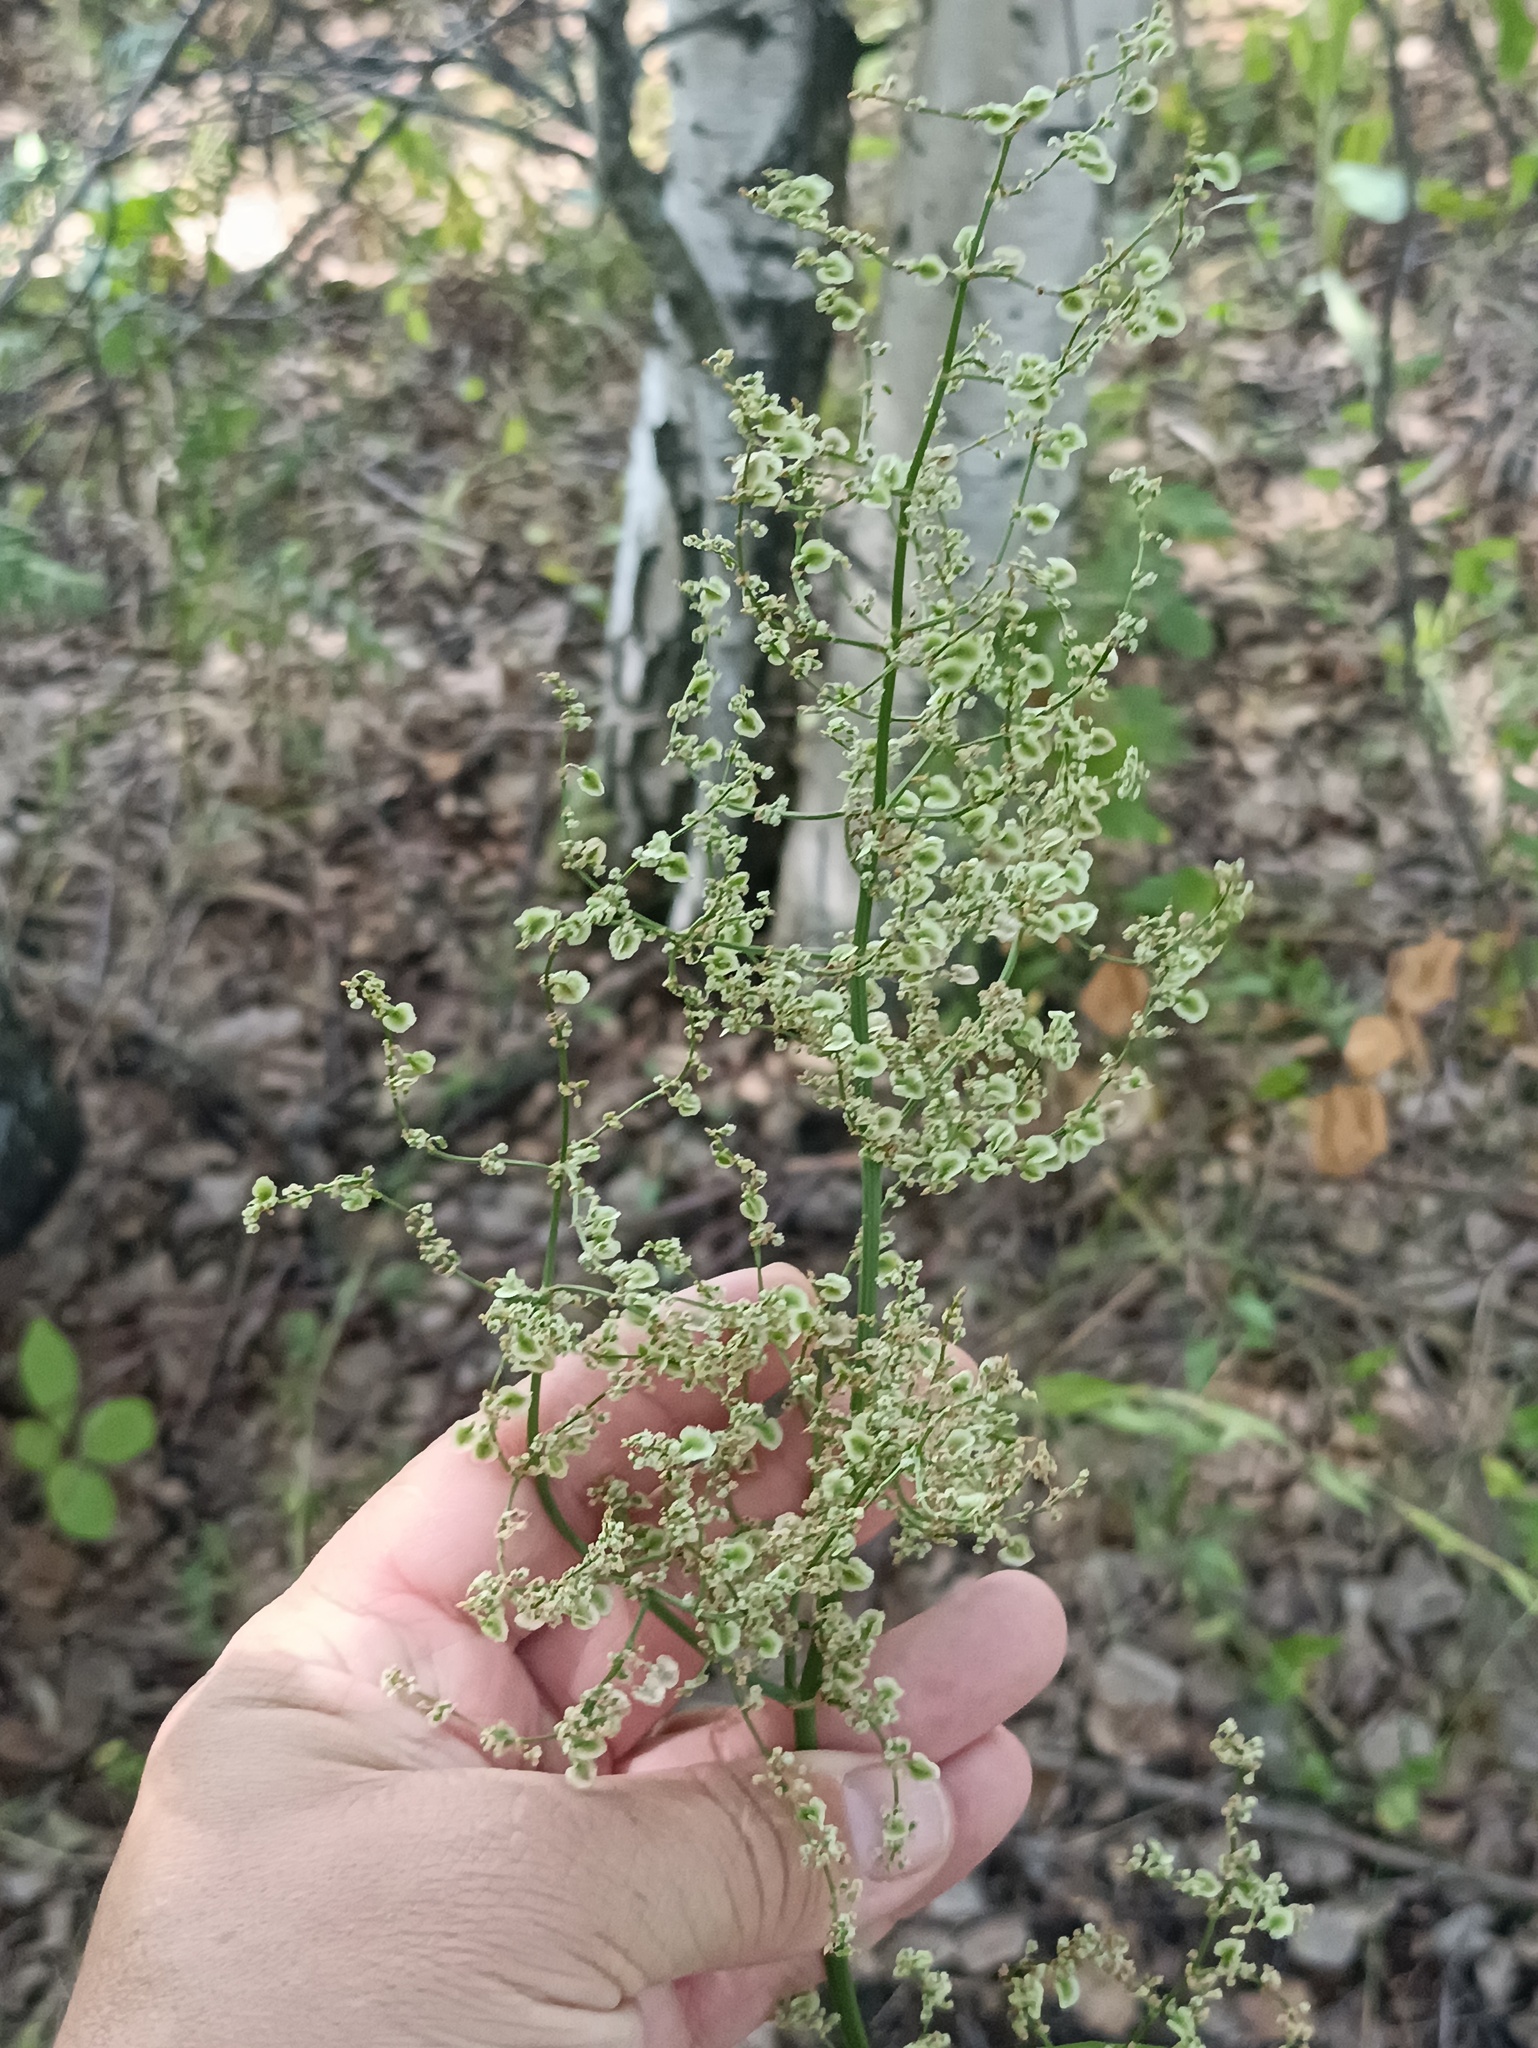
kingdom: Plantae
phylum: Tracheophyta
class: Magnoliopsida
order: Caryophyllales
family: Polygonaceae
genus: Rumex
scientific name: Rumex thyrsiflorus
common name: Garden sorrel
